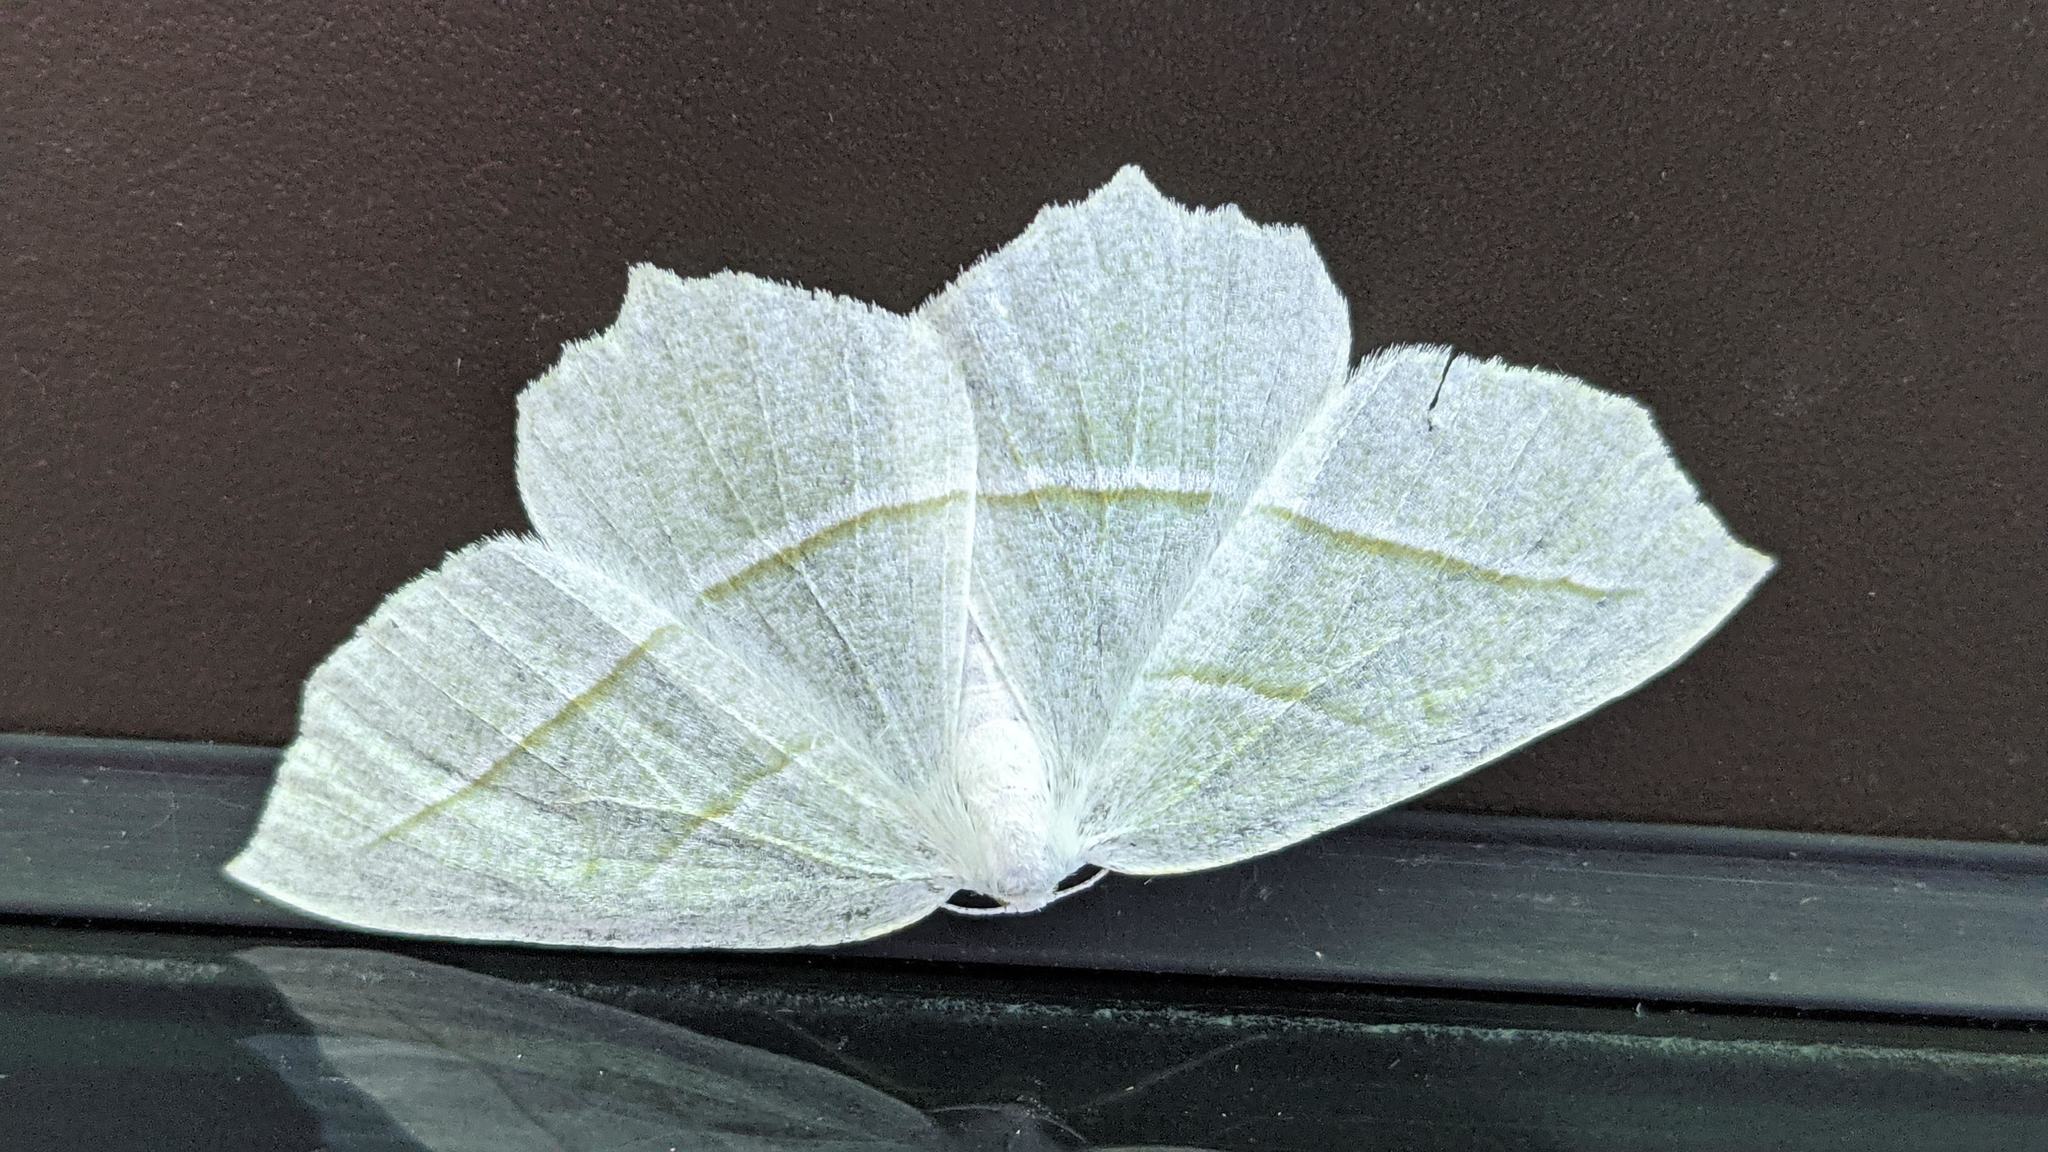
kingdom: Animalia
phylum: Arthropoda
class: Insecta
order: Lepidoptera
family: Geometridae
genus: Campaea
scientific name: Campaea perlata
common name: Fringed looper
